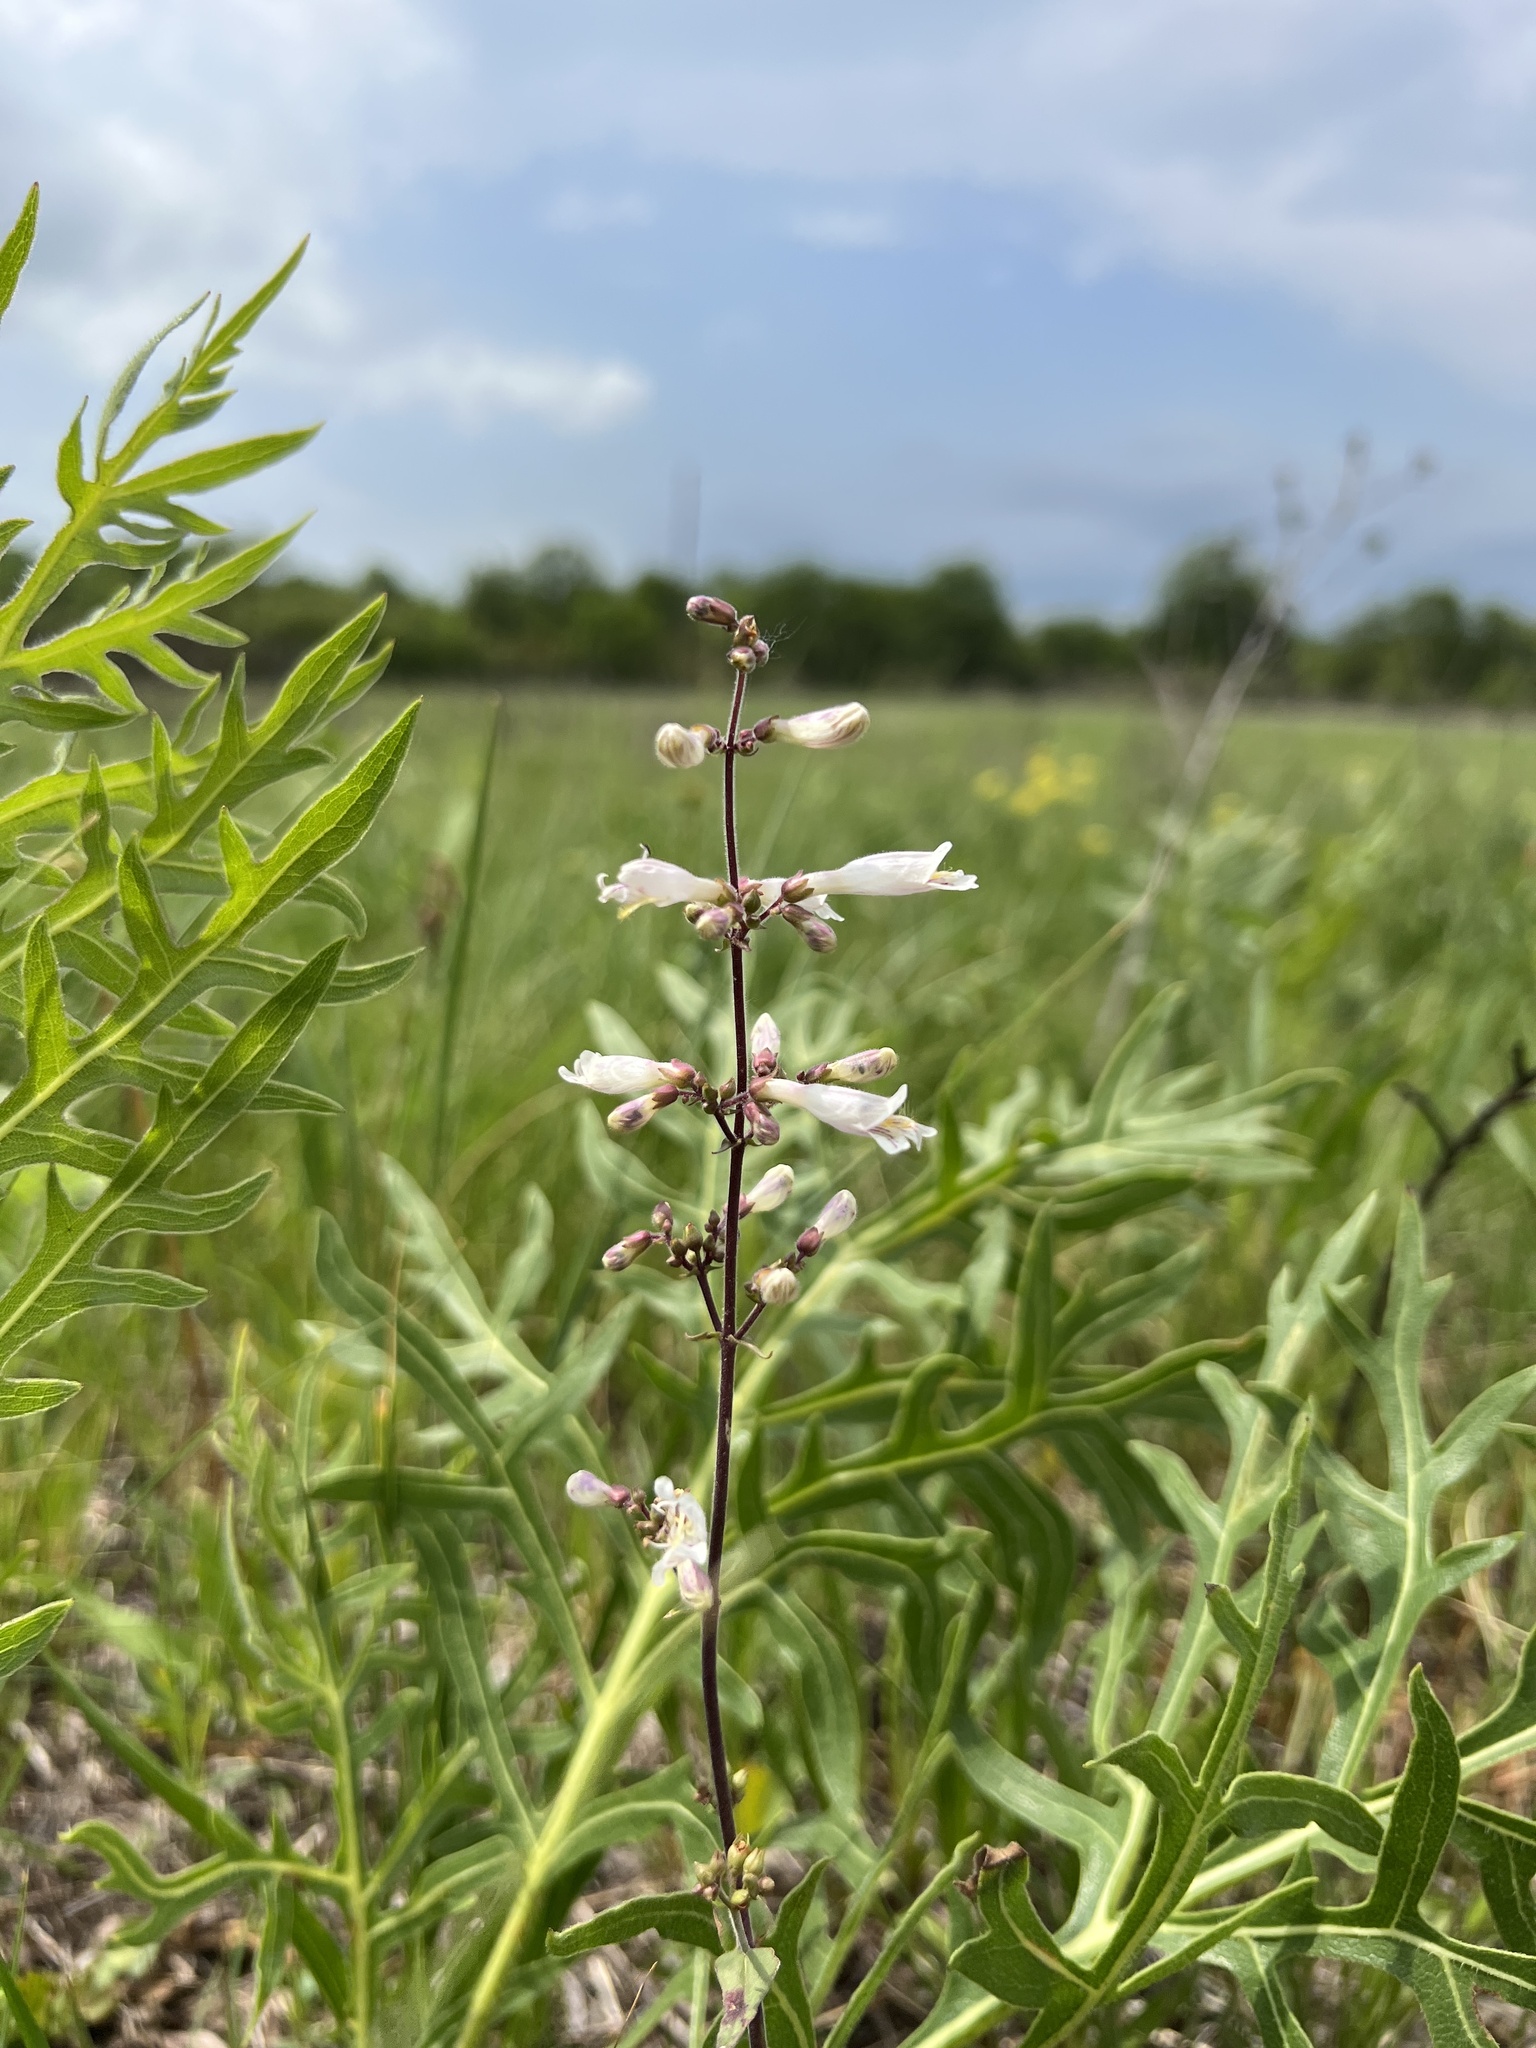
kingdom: Plantae
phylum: Tracheophyta
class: Magnoliopsida
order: Lamiales
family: Plantaginaceae
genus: Penstemon
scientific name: Penstemon pallidus
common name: Pale beardtongue
